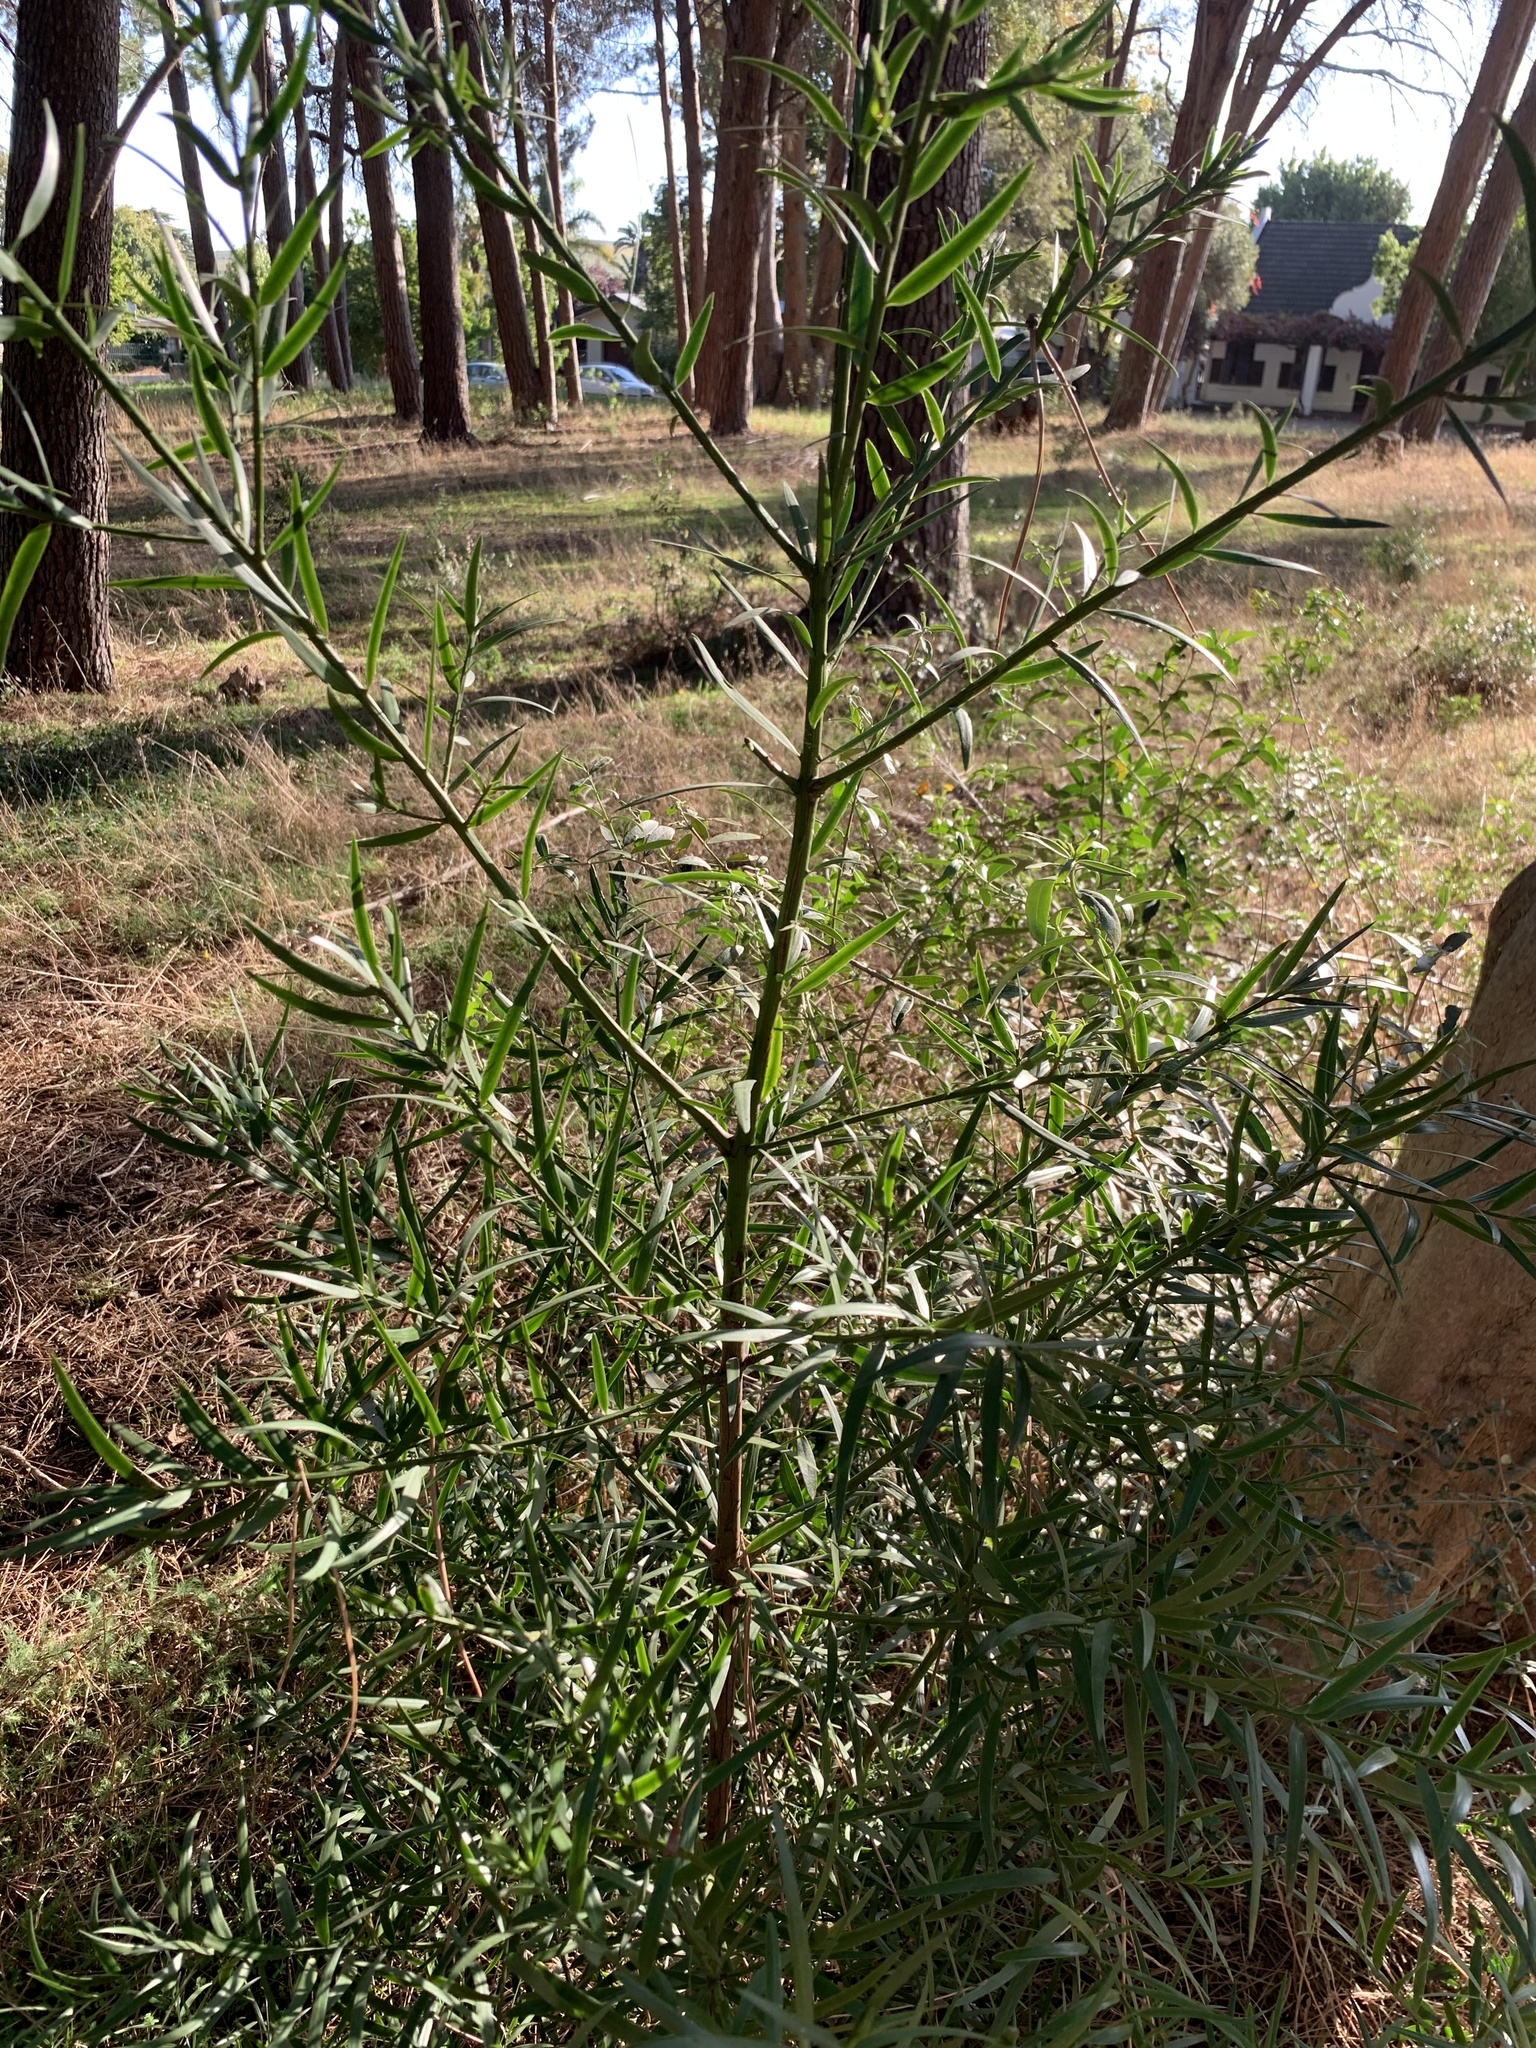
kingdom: Plantae
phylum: Tracheophyta
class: Pinopsida
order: Pinales
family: Podocarpaceae
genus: Afrocarpus
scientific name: Afrocarpus falcatus
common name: Bastard yellowwood
